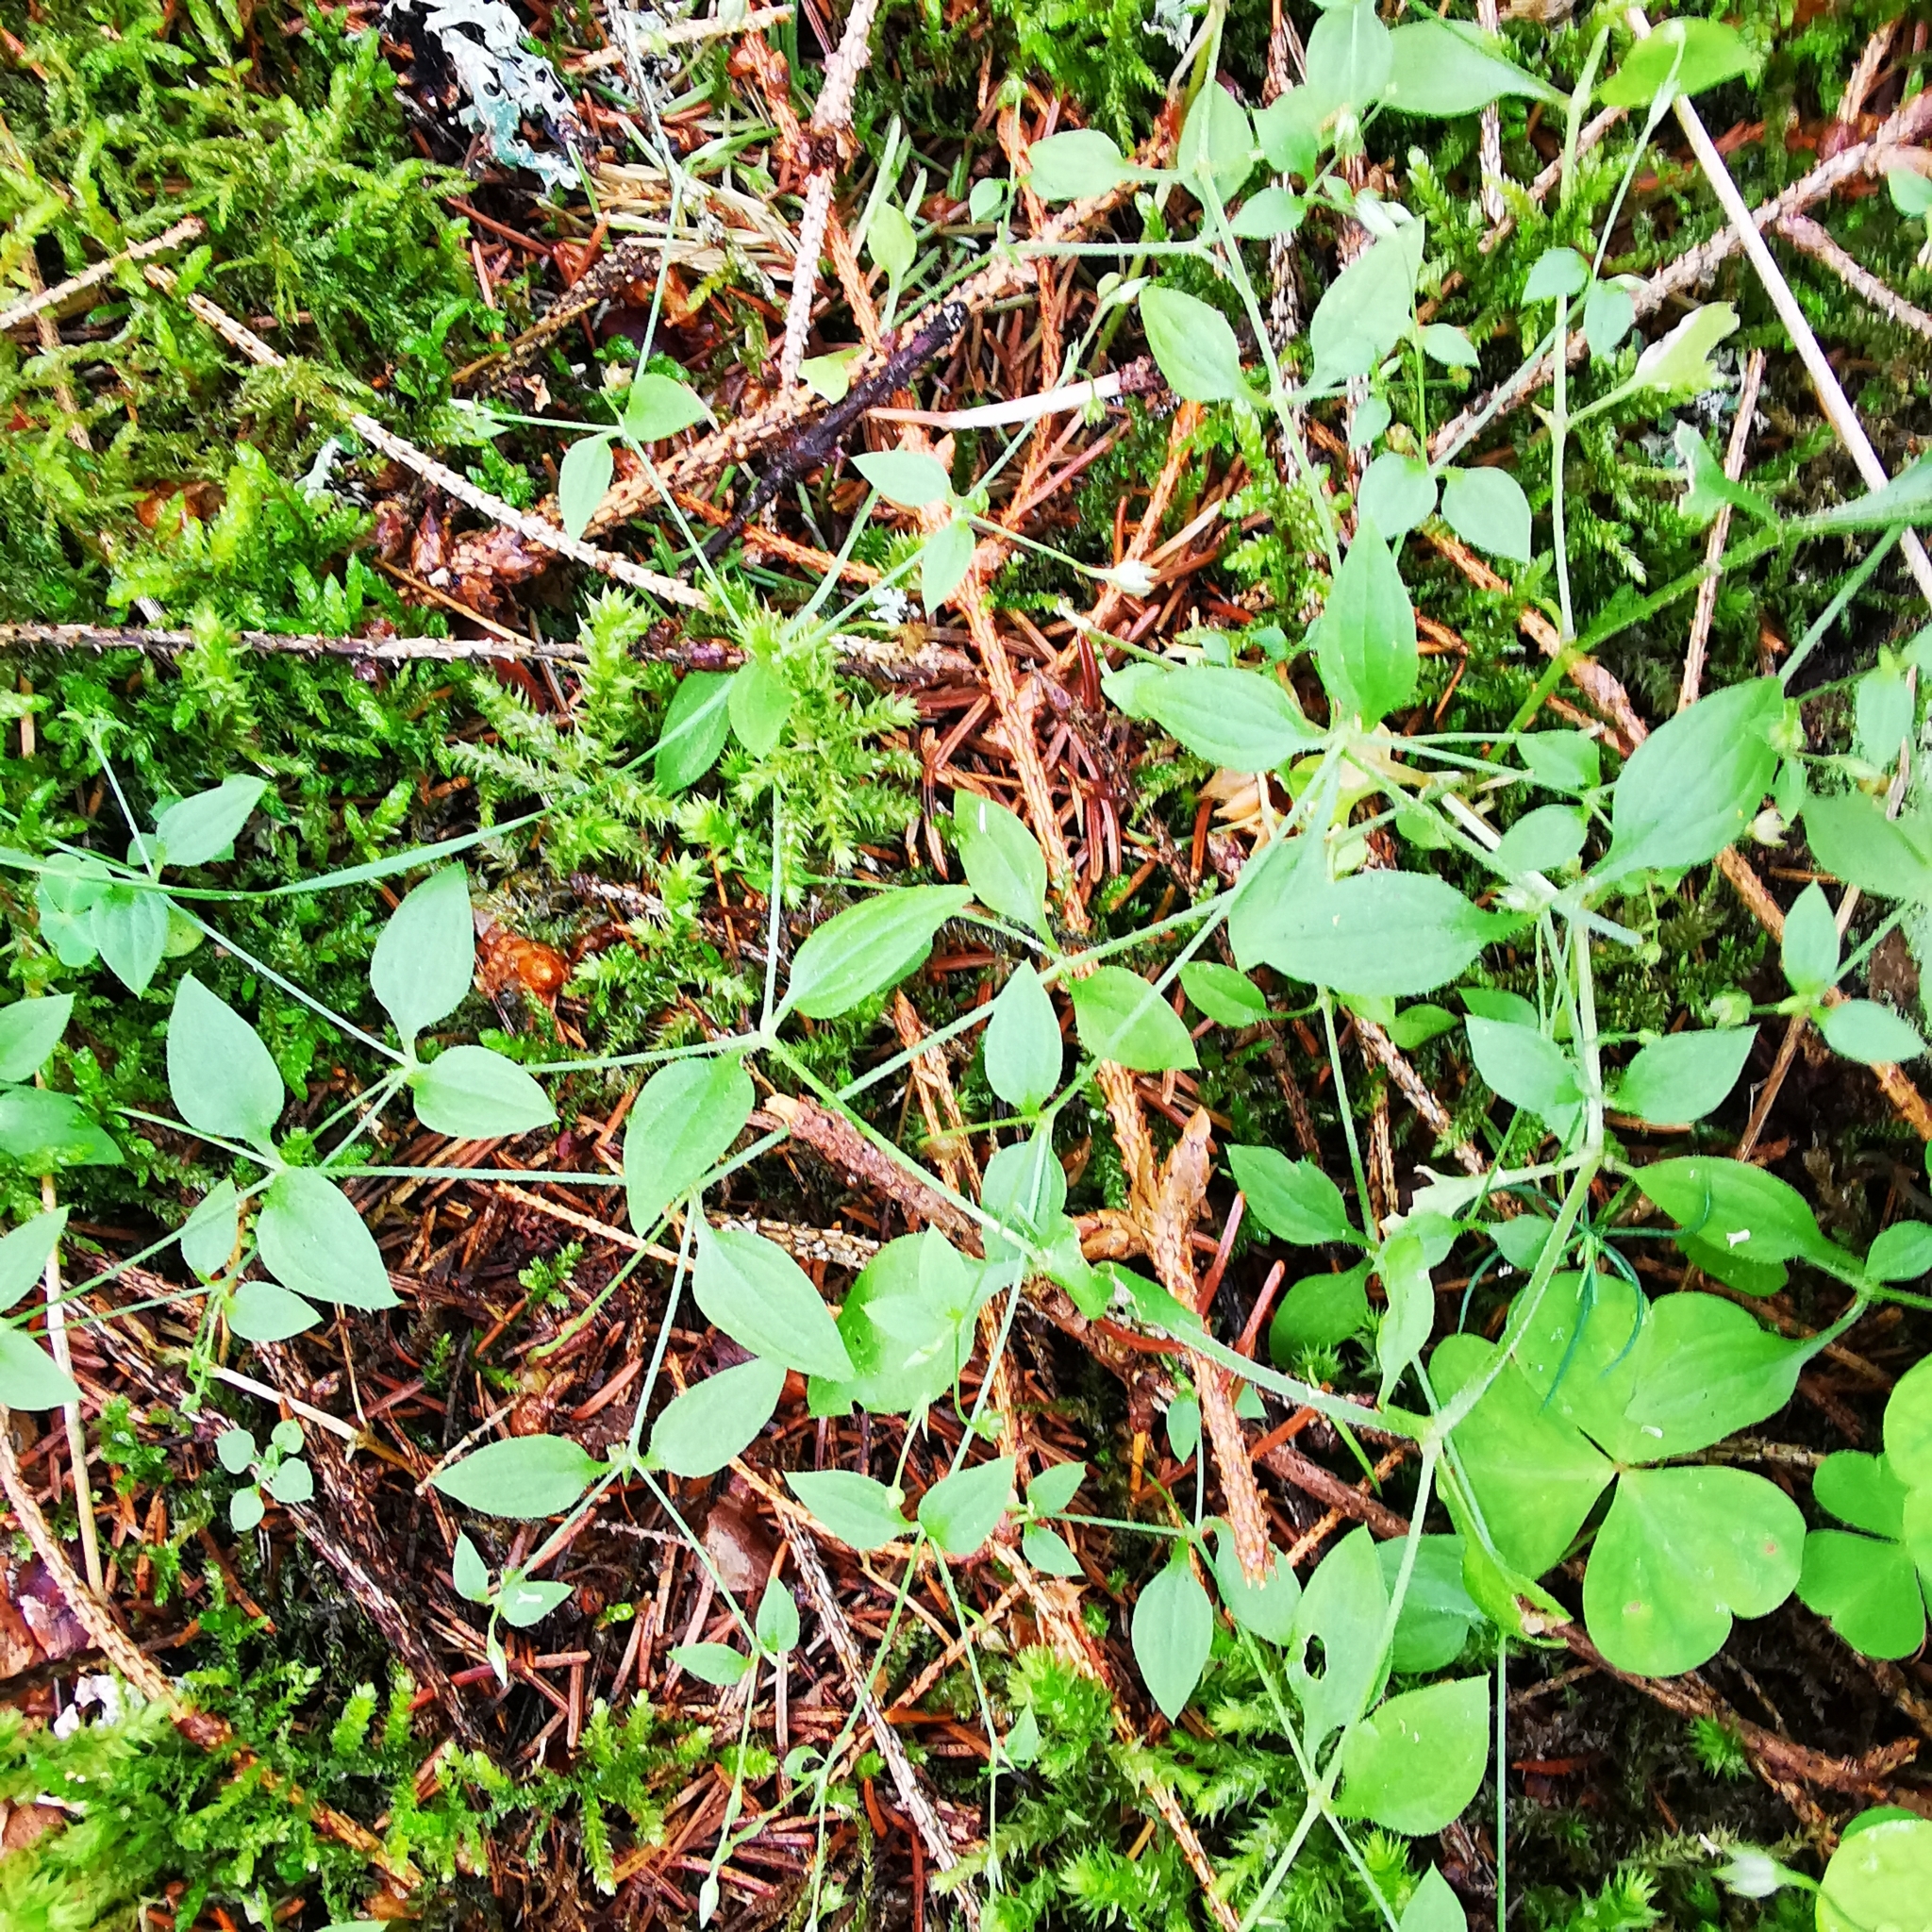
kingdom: Plantae
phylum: Tracheophyta
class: Magnoliopsida
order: Caryophyllales
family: Caryophyllaceae
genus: Moehringia
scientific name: Moehringia trinervia
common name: Three-nerved sandwort
